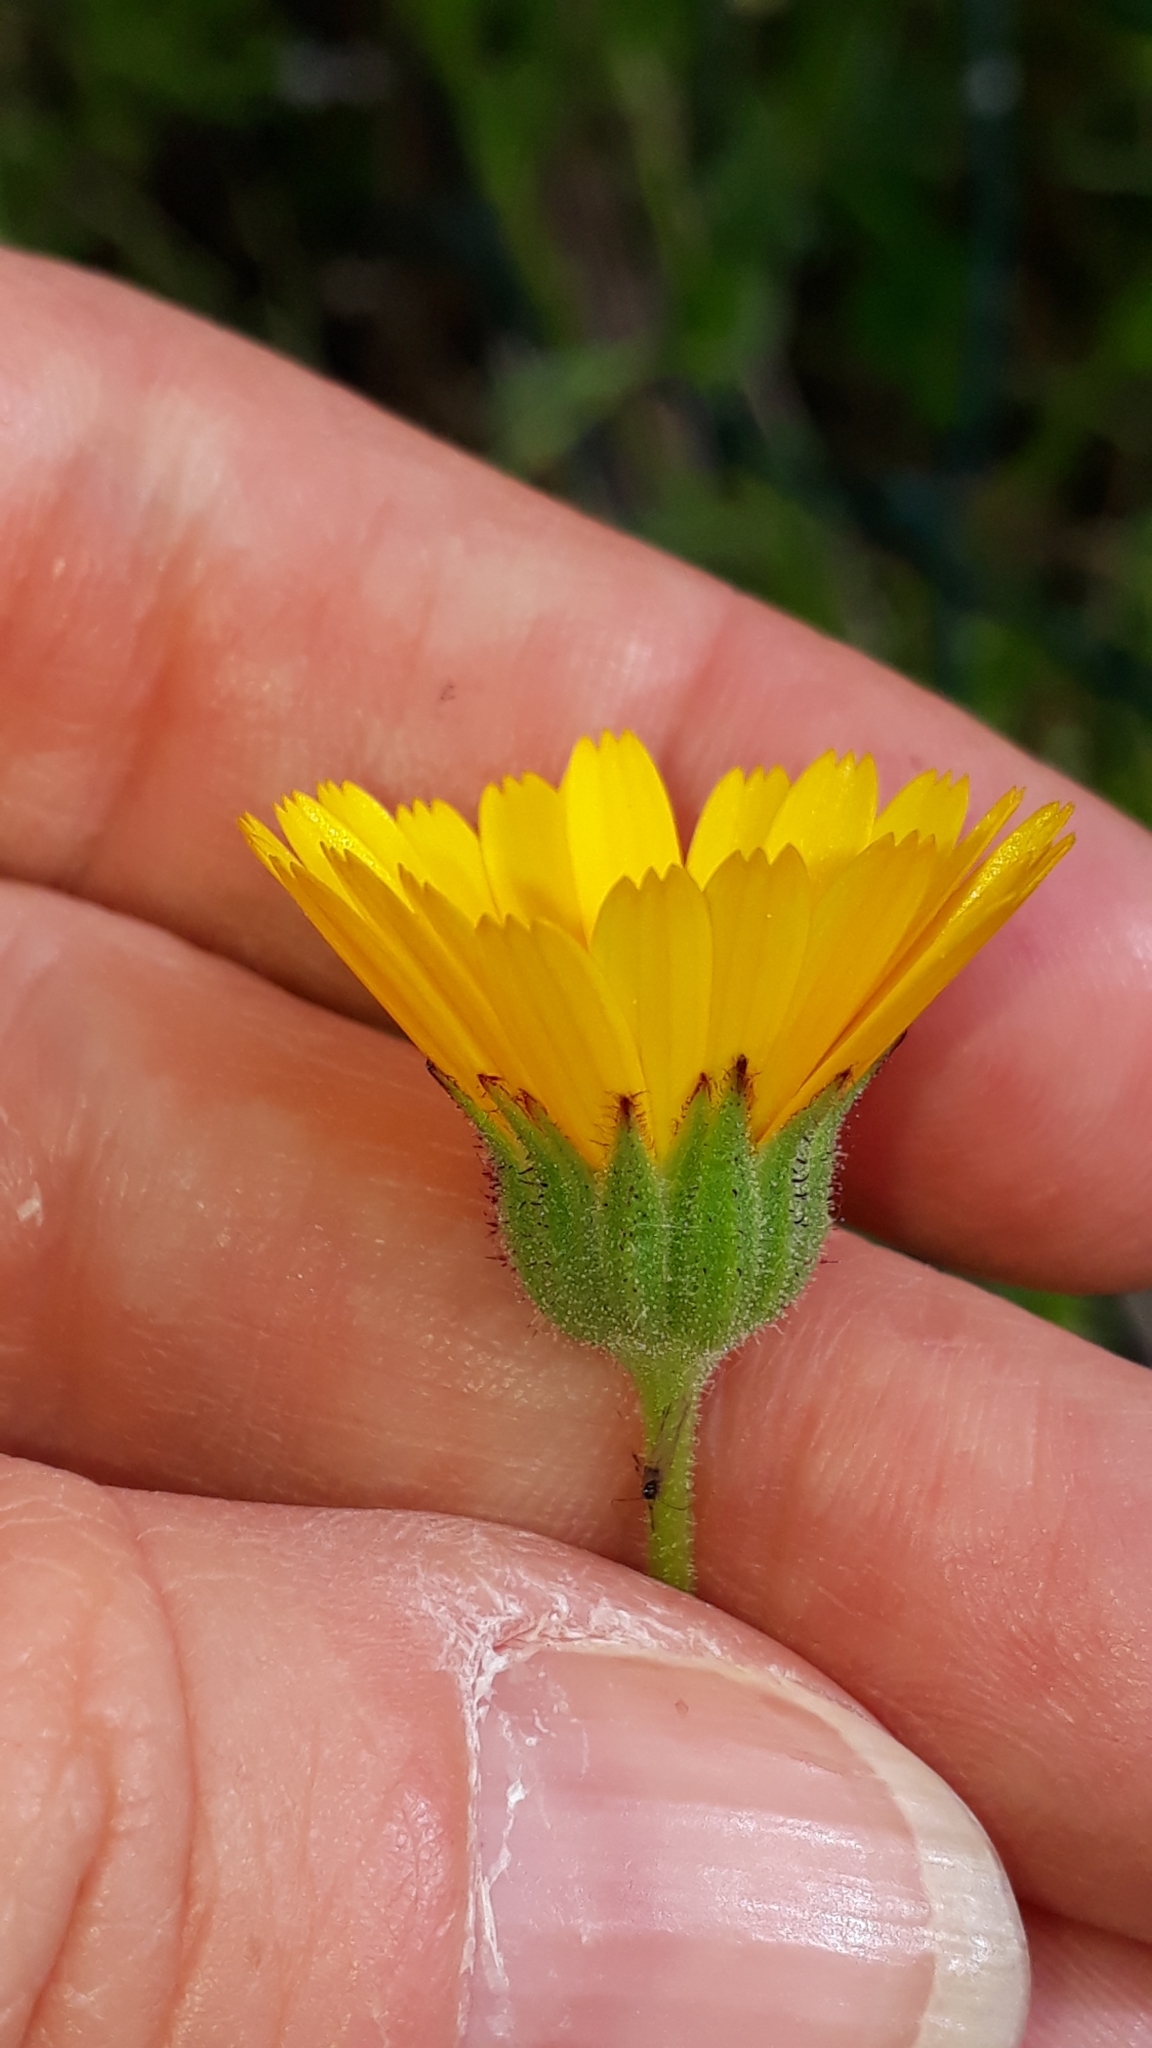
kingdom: Plantae
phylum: Tracheophyta
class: Magnoliopsida
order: Asterales
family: Asteraceae
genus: Calendula
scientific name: Calendula arvensis
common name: Field marigold
